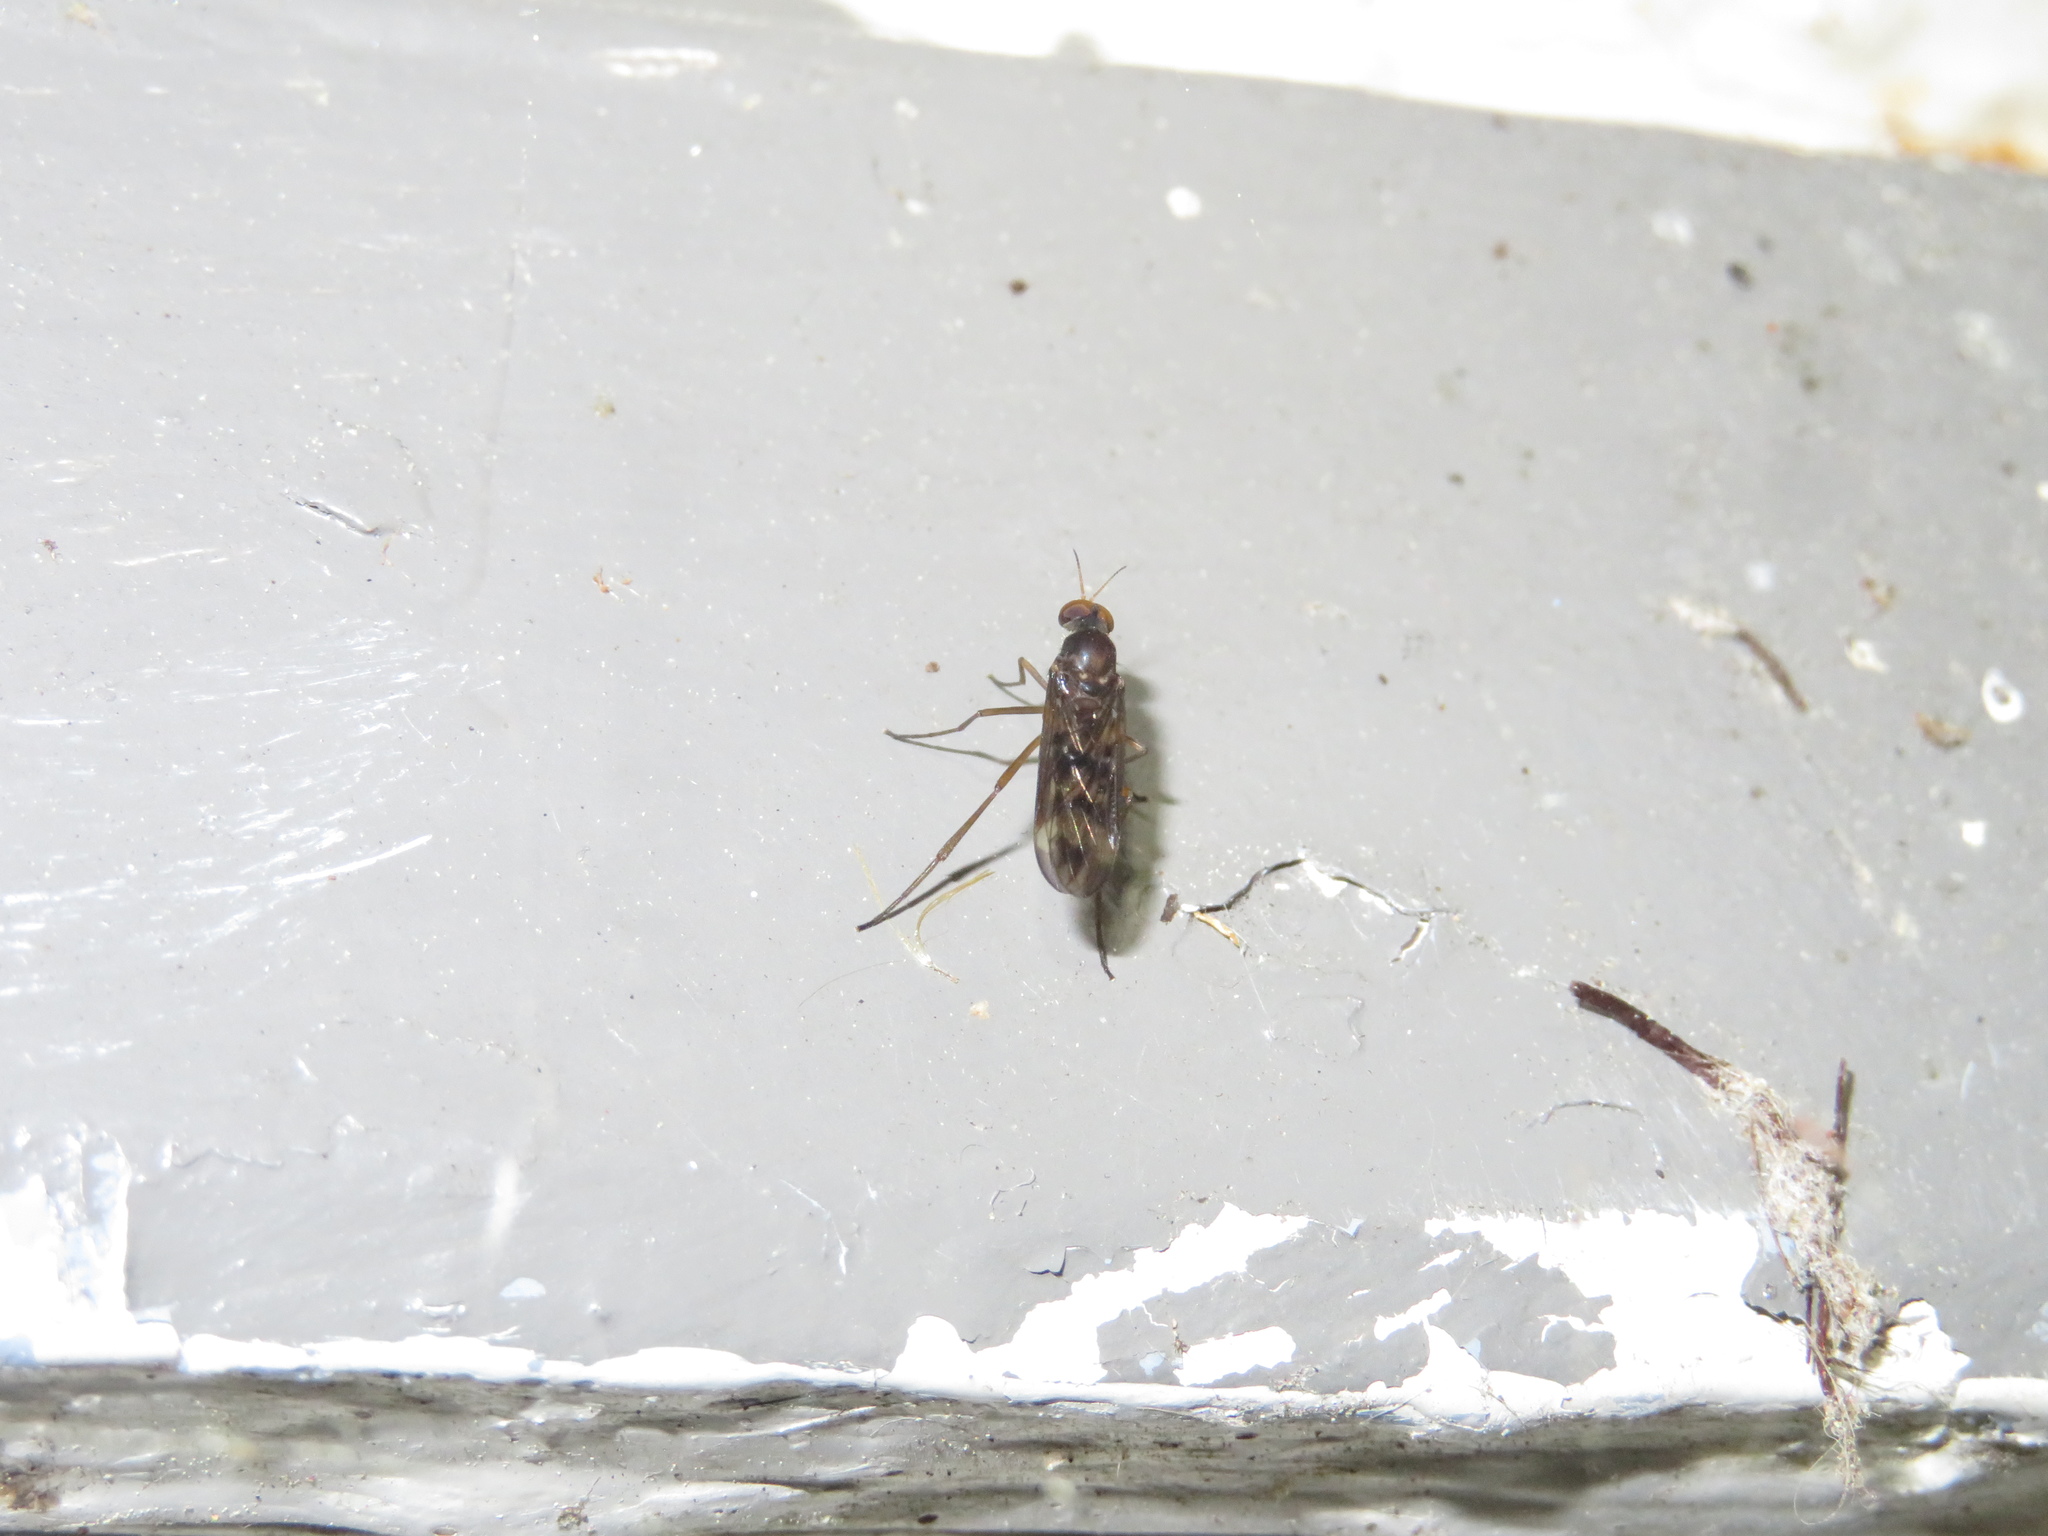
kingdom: Animalia
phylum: Arthropoda
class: Insecta
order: Diptera
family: Anisopodidae
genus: Sylvicola
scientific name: Sylvicola neozelandicus
